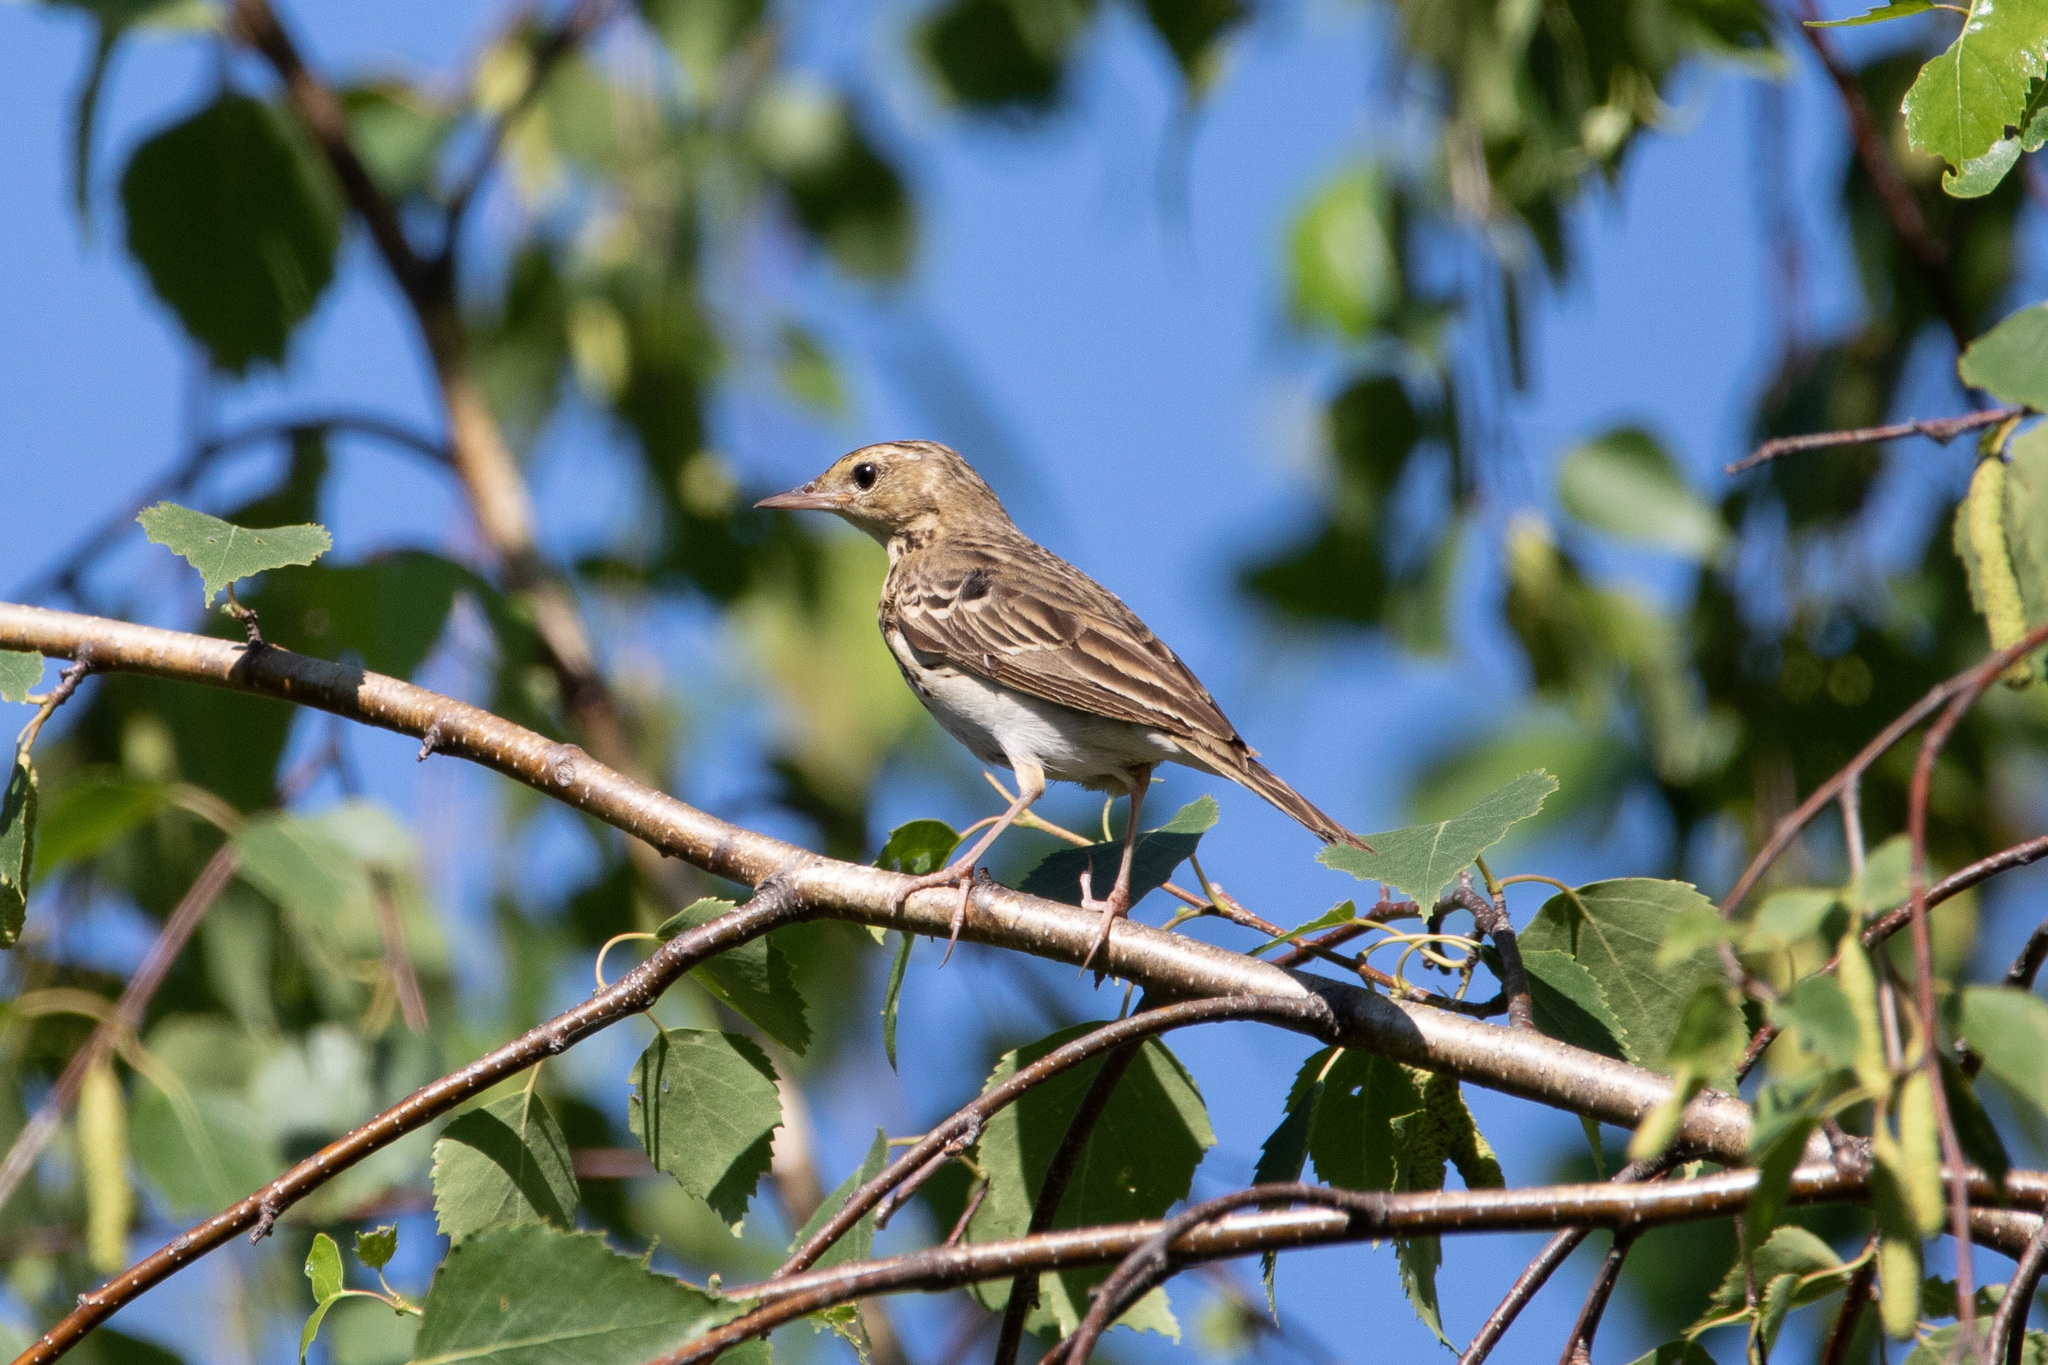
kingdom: Animalia
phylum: Chordata
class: Aves
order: Passeriformes
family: Motacillidae
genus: Anthus
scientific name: Anthus trivialis
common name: Tree pipit
